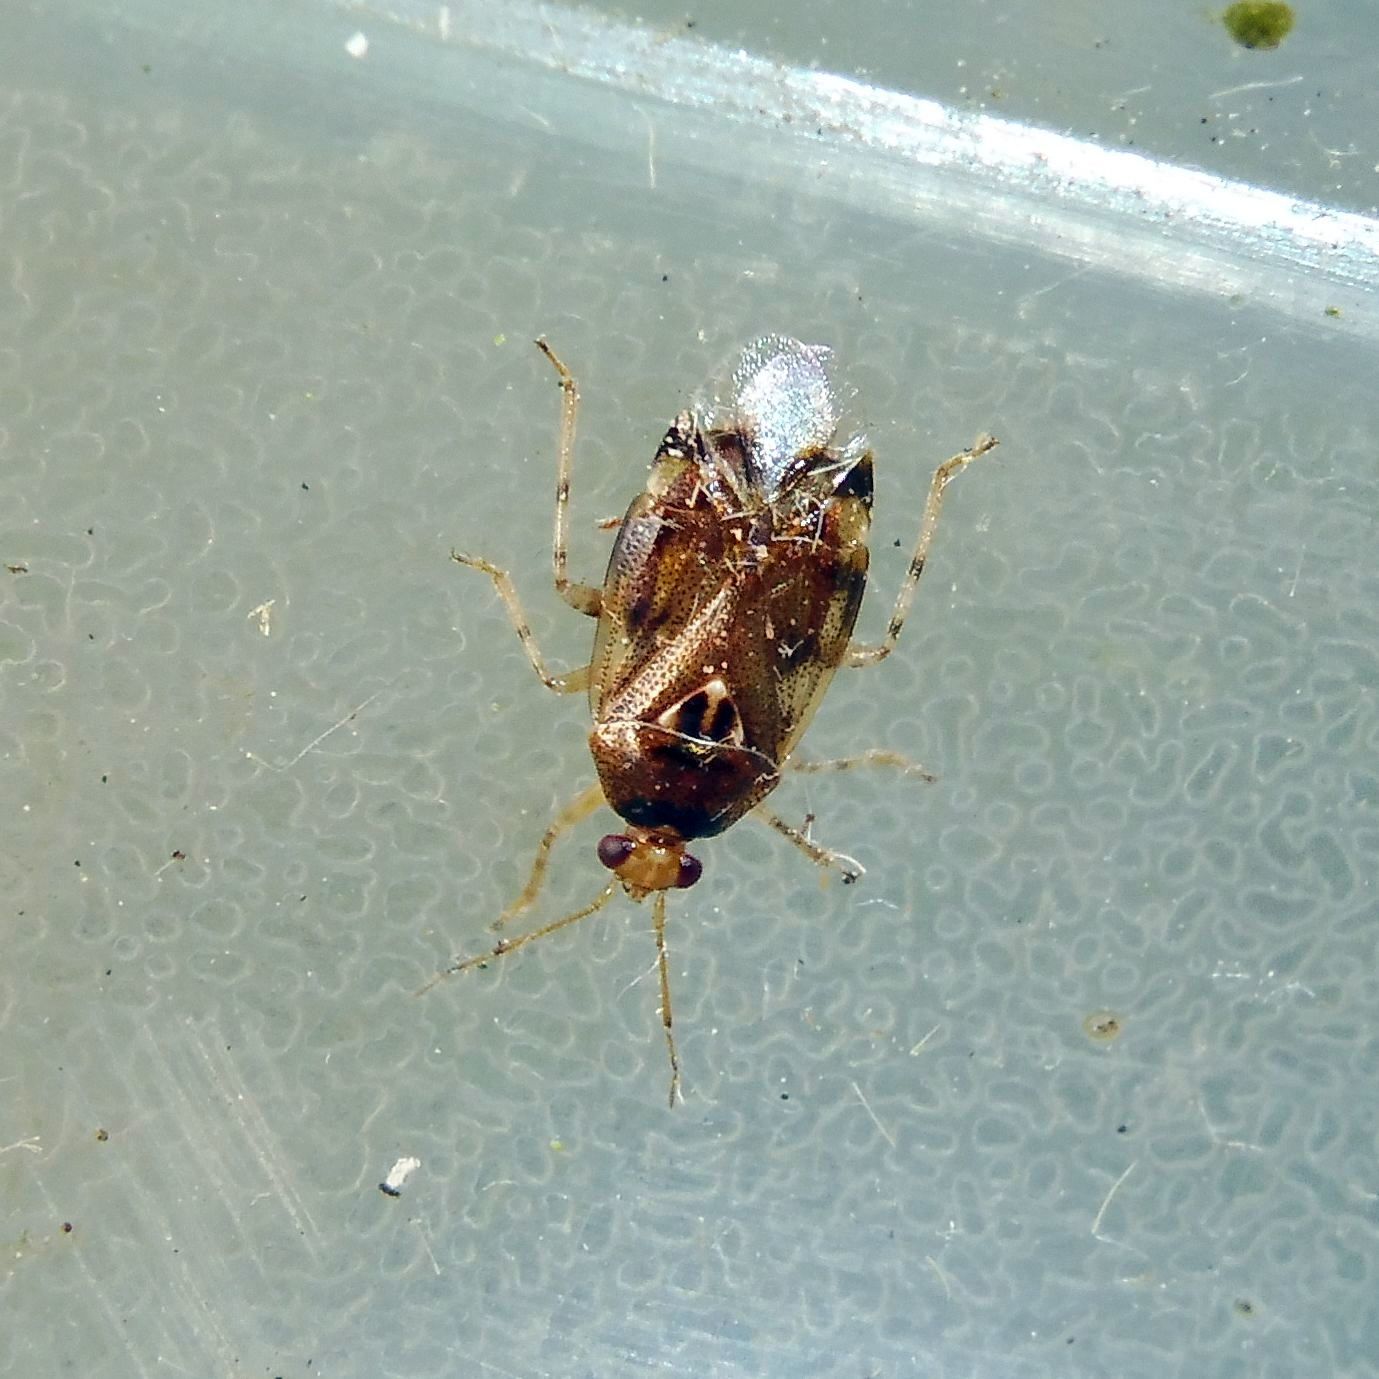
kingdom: Animalia
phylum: Arthropoda
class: Insecta
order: Hemiptera
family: Miridae
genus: Deraeocoris
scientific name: Deraeocoris lutescens
